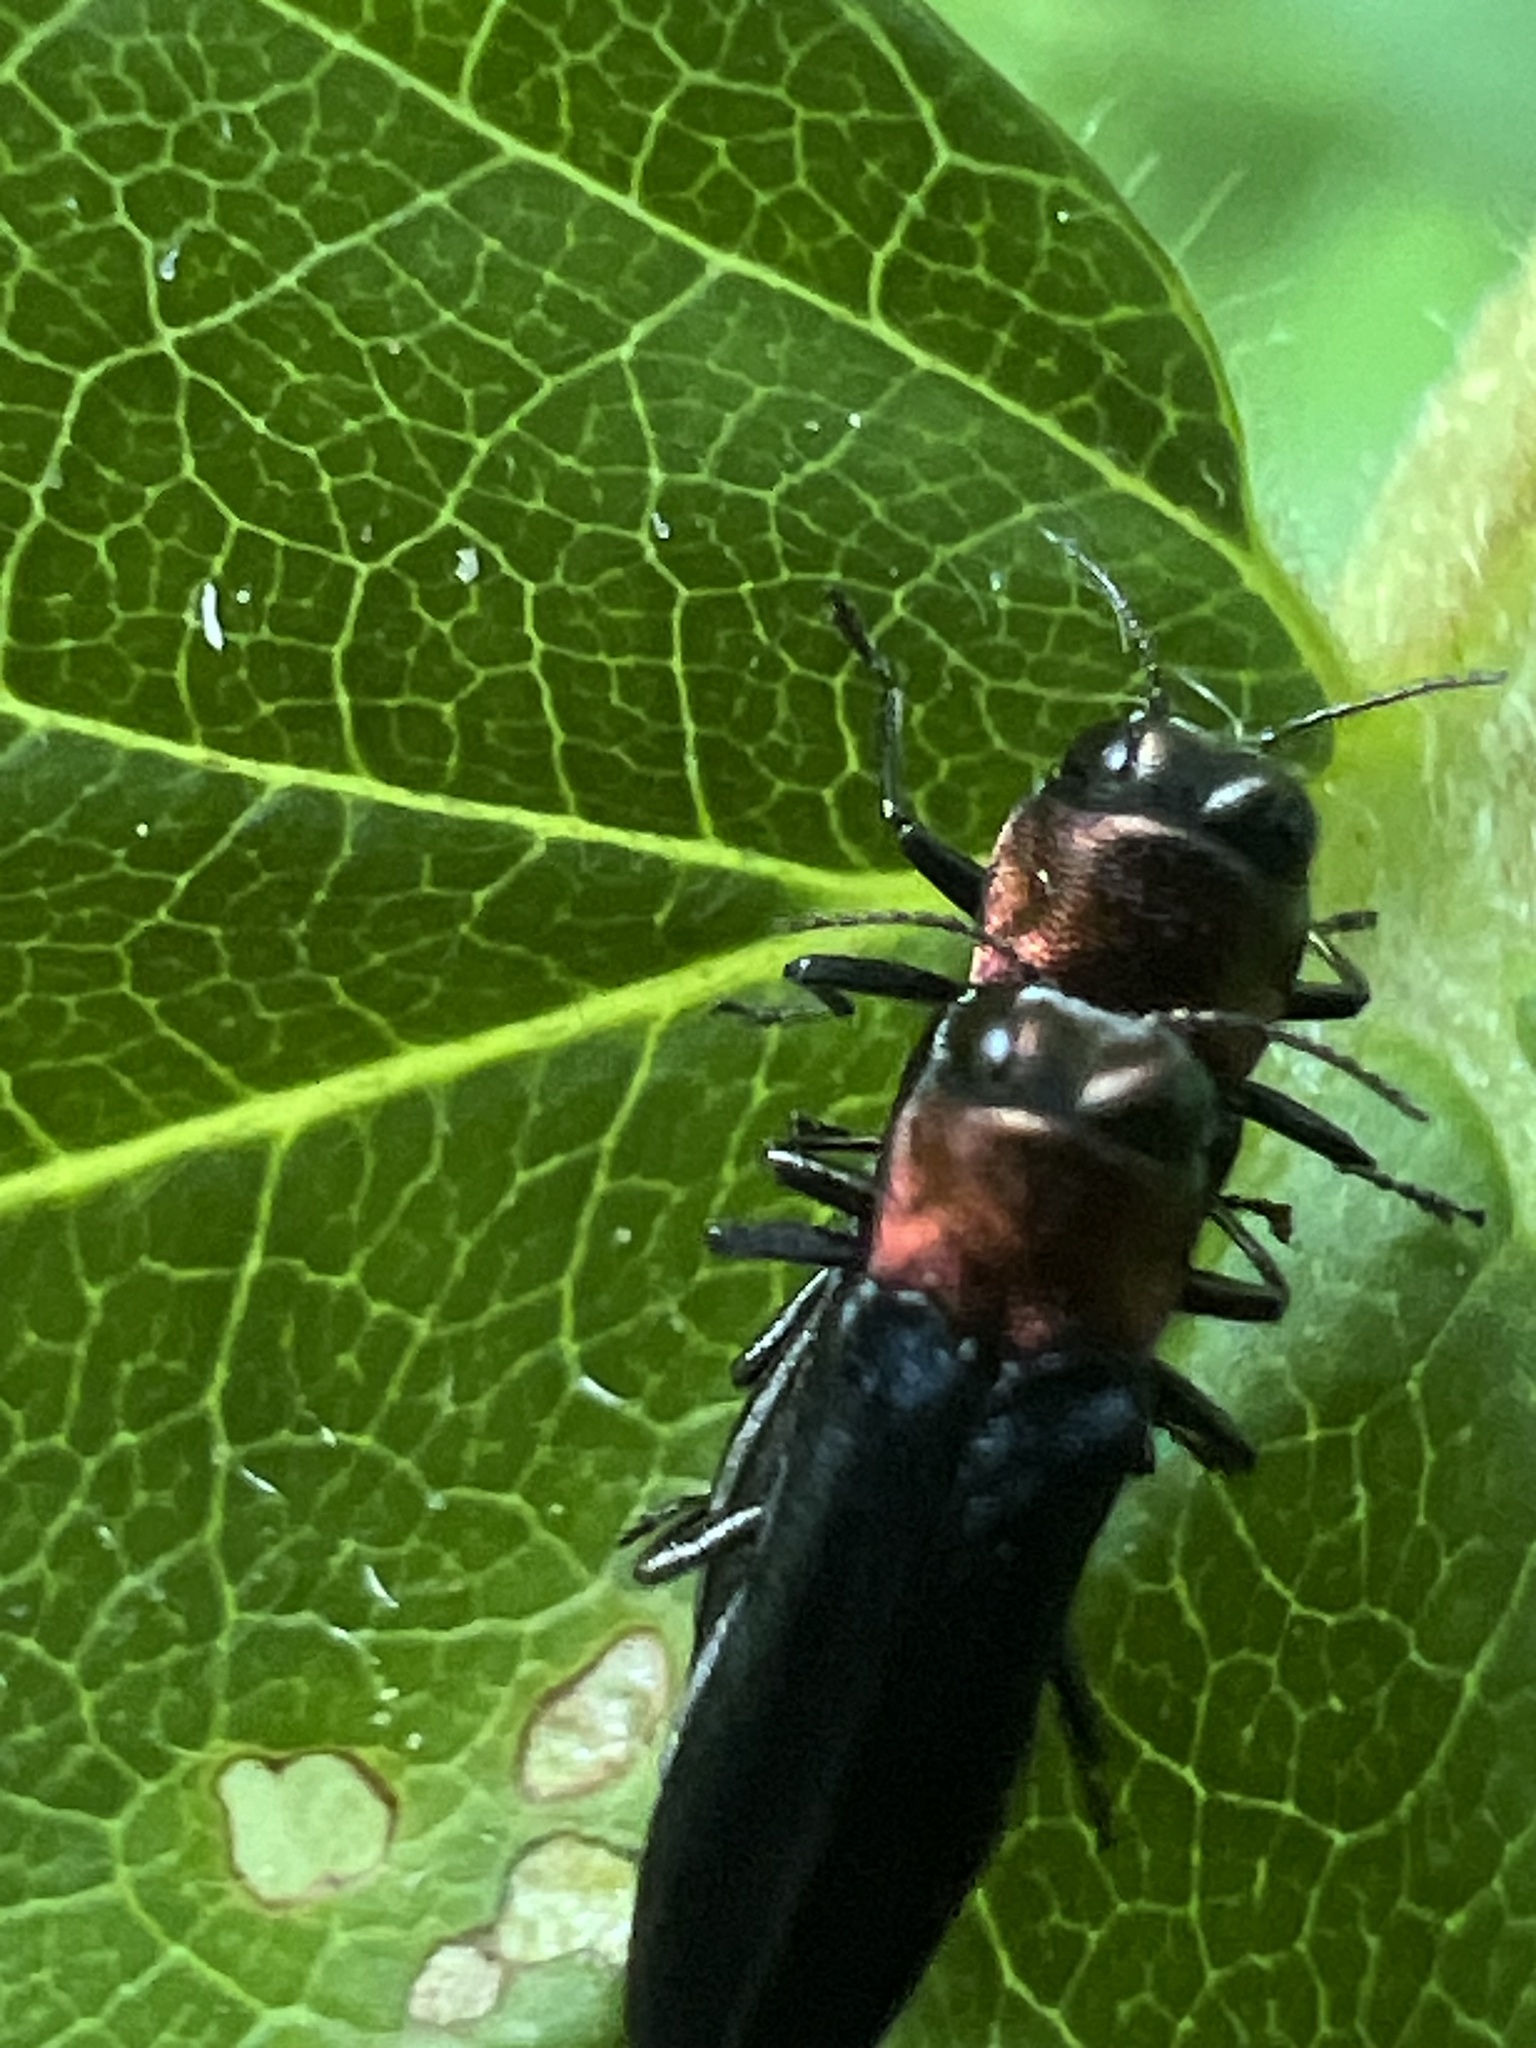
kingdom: Animalia
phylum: Arthropoda
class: Insecta
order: Coleoptera
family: Buprestidae
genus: Agrilus
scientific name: Agrilus ruficollis
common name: Red-necked cane borer beetle
